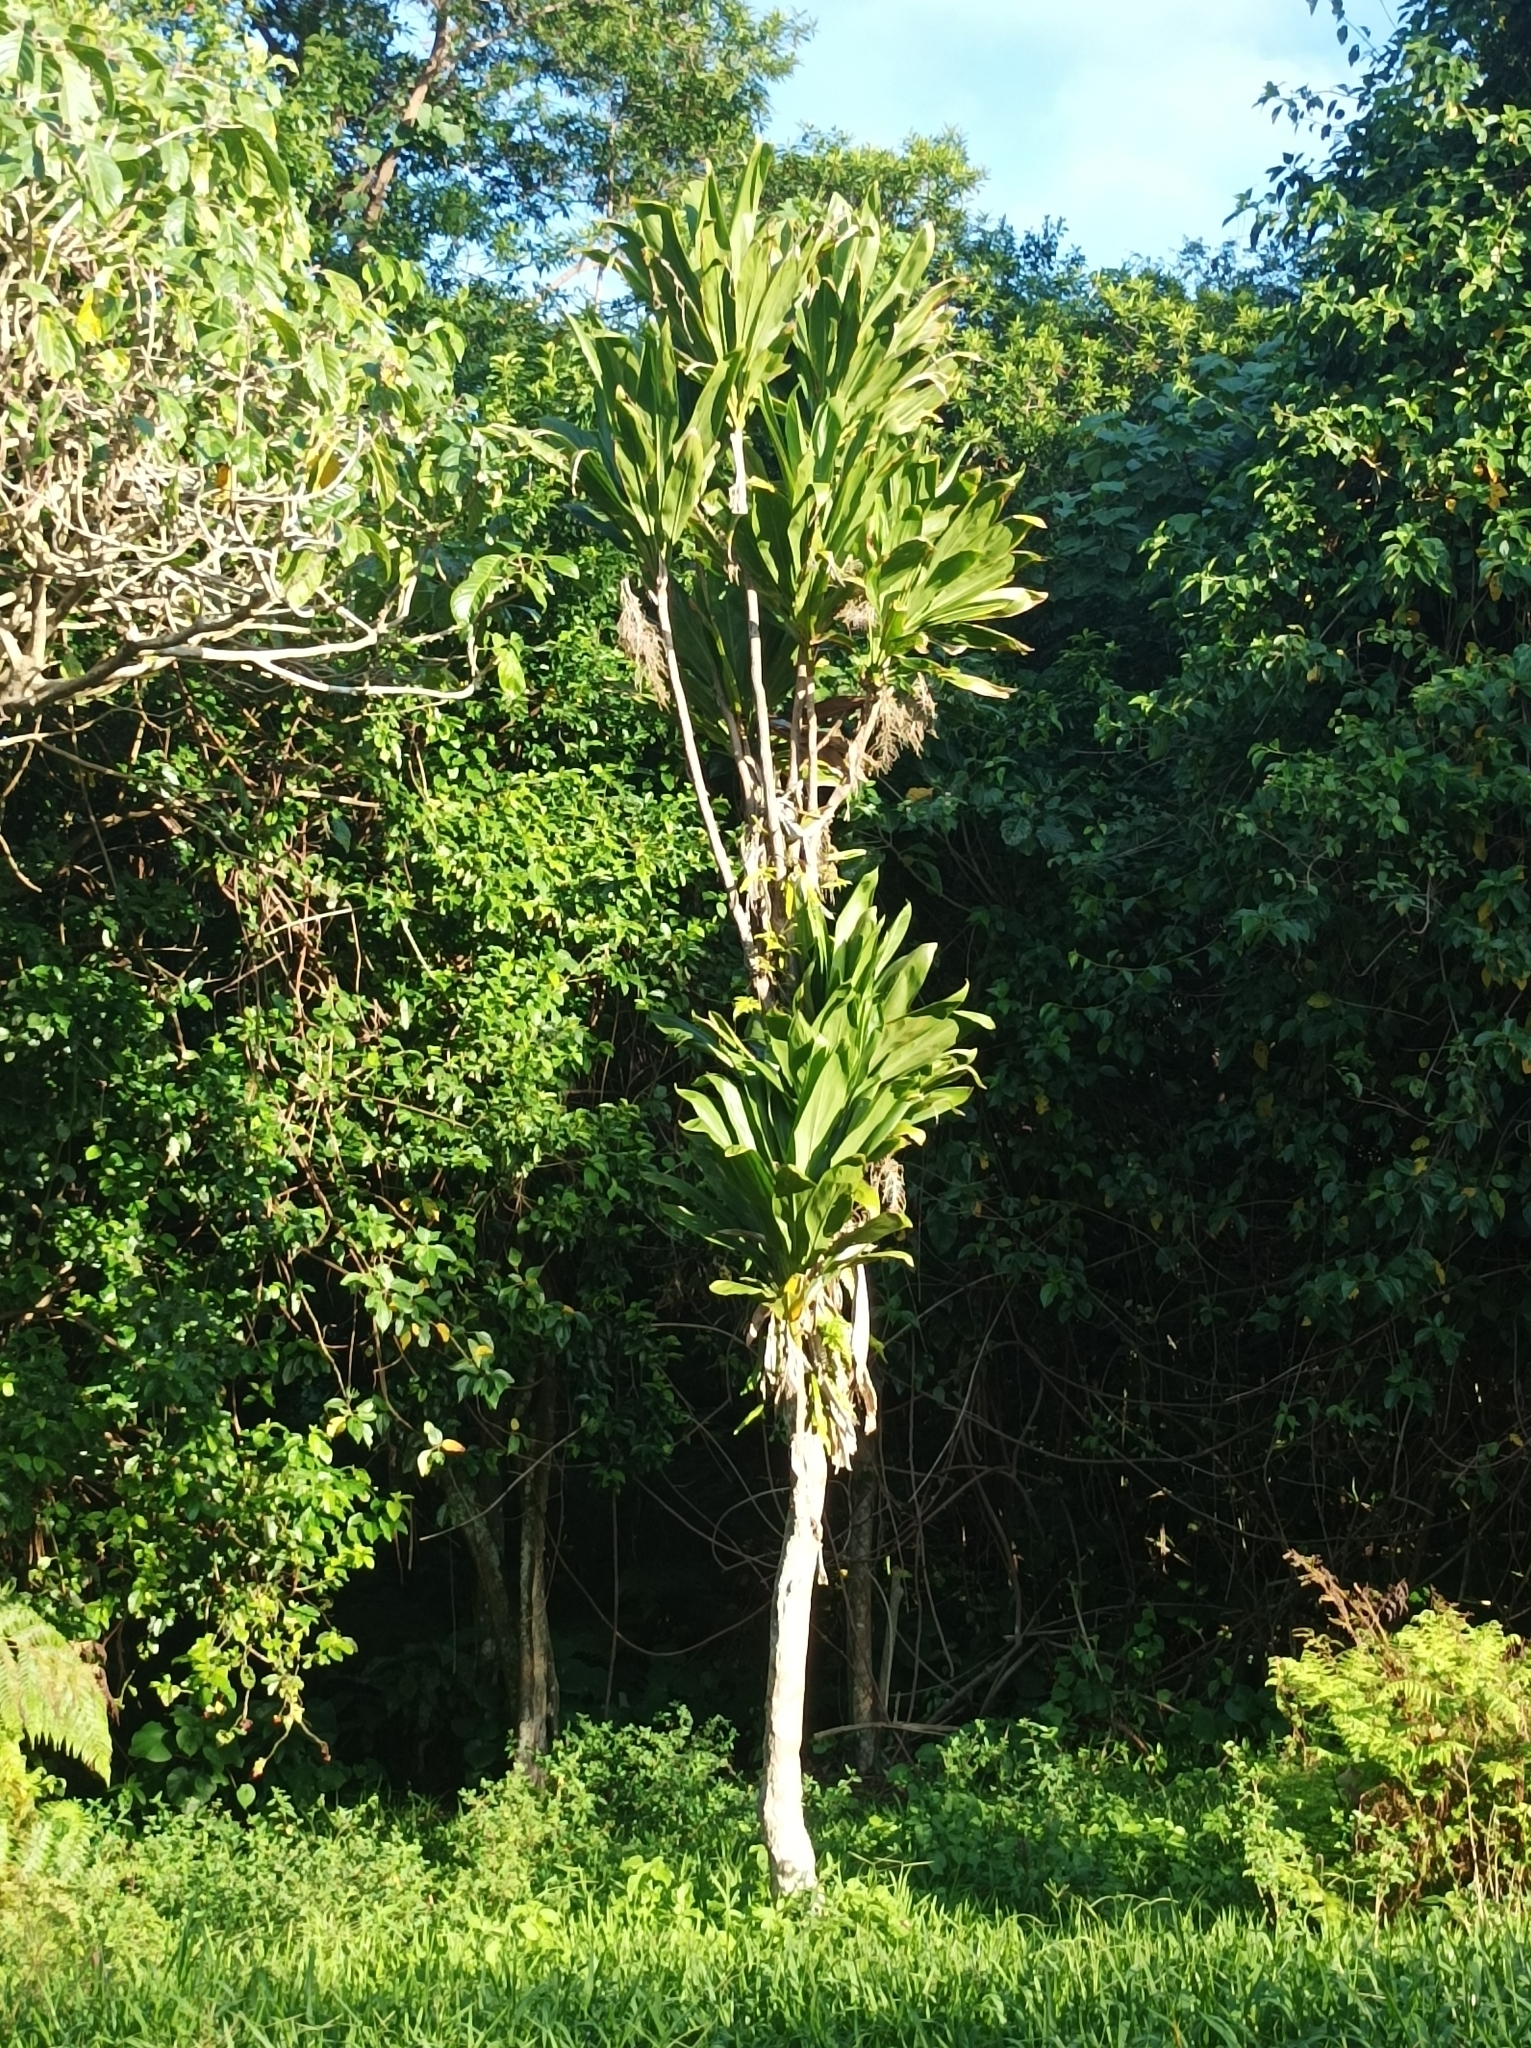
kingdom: Plantae
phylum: Tracheophyta
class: Liliopsida
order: Asparagales
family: Asparagaceae
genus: Cordyline
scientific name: Cordyline fruticosa
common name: Good-luck-plant
